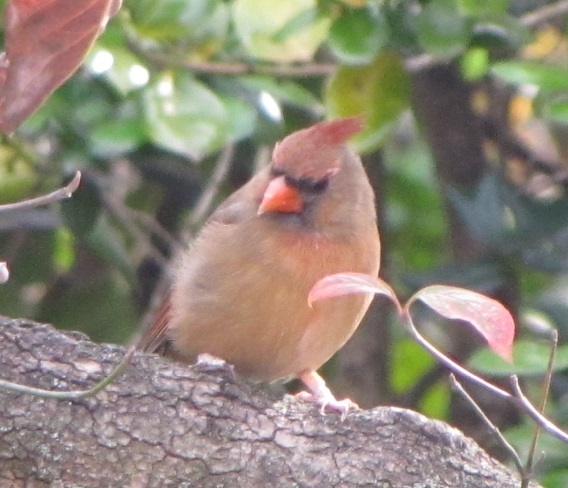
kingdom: Animalia
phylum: Chordata
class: Aves
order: Passeriformes
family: Cardinalidae
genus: Cardinalis
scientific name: Cardinalis cardinalis
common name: Northern cardinal
